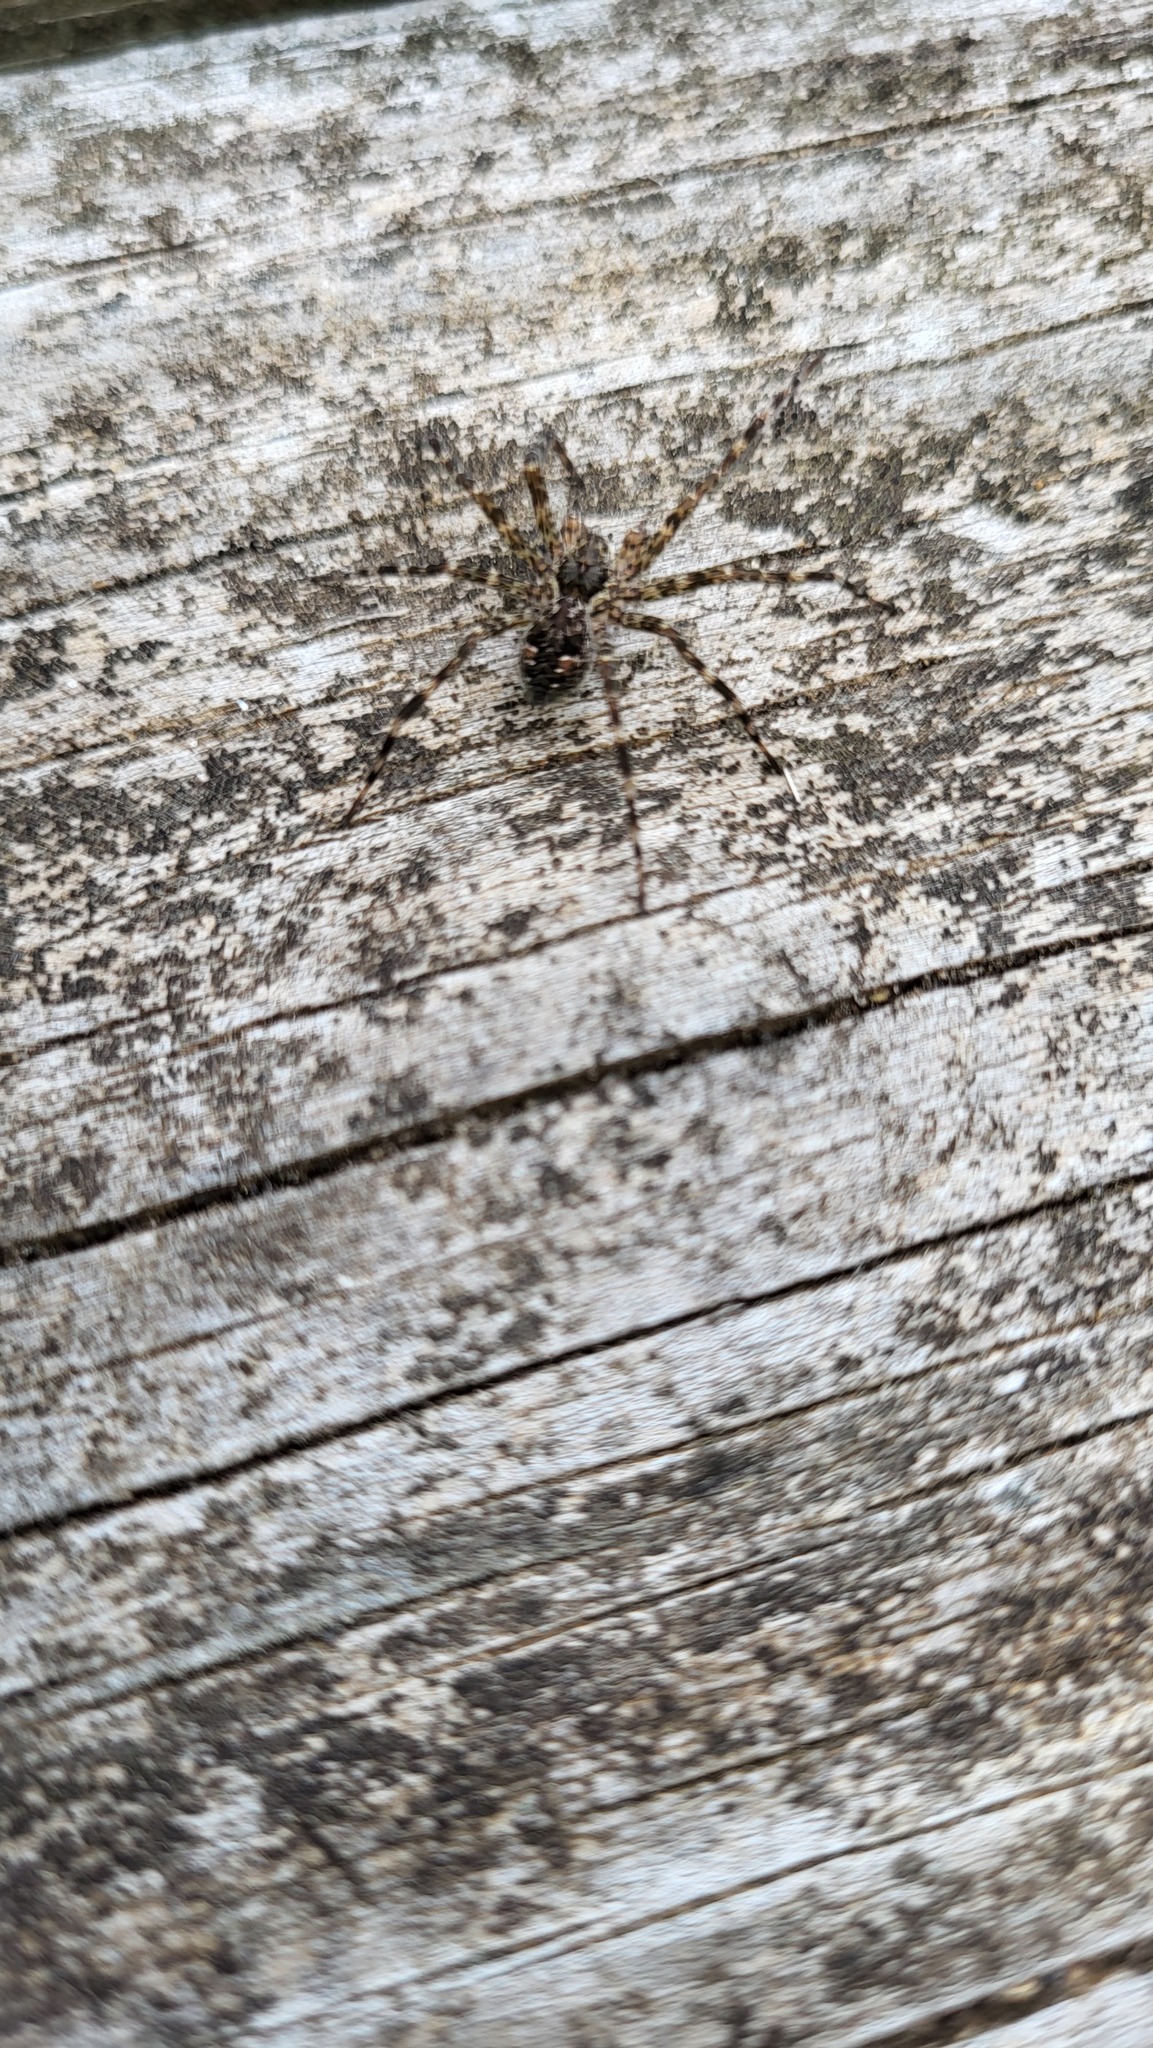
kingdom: Animalia
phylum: Arthropoda
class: Arachnida
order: Araneae
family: Pisauridae
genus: Dolomedes
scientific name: Dolomedes tenebrosus
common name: Dark fishing spider
